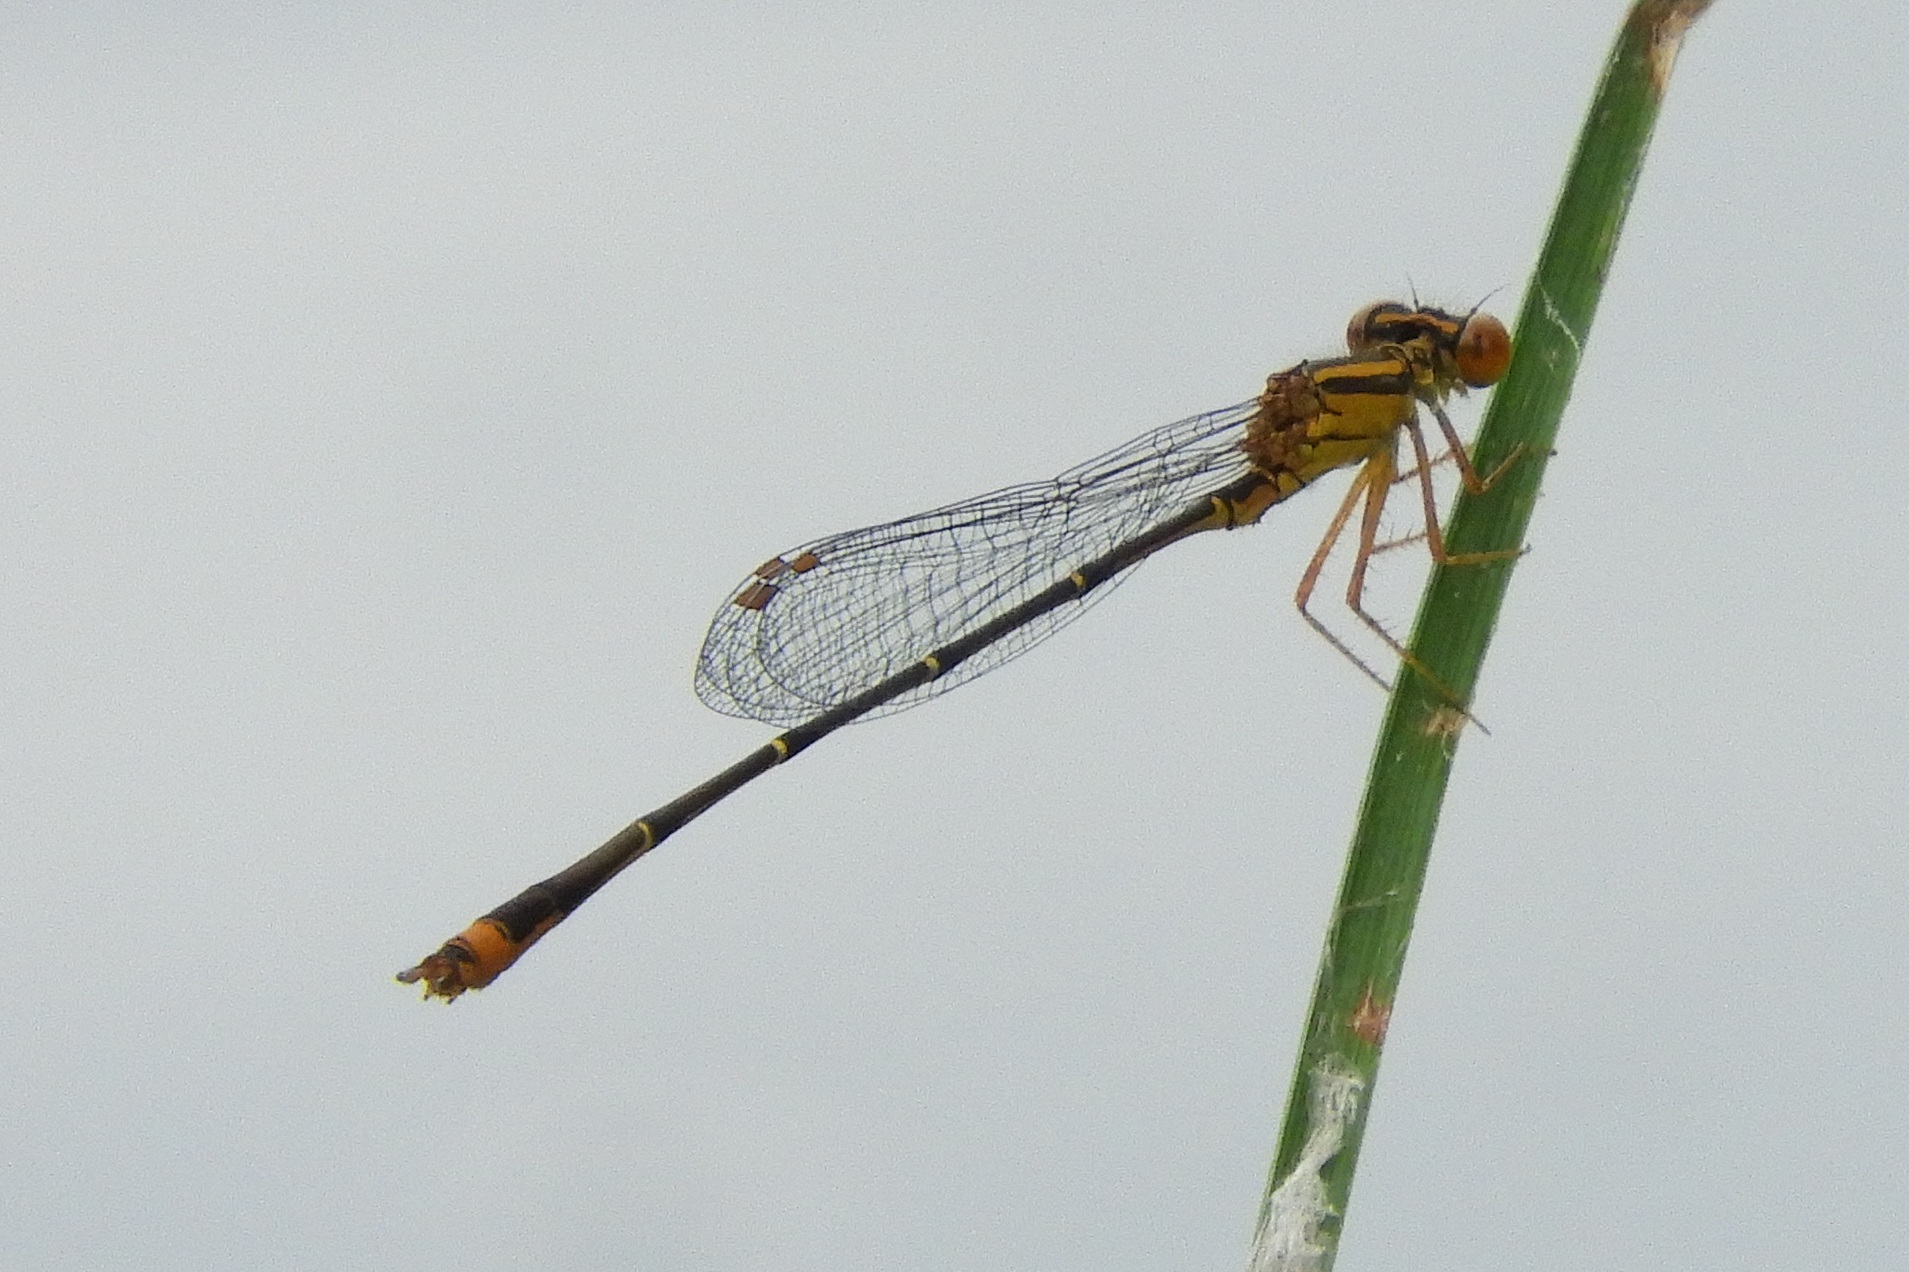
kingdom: Animalia
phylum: Arthropoda
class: Insecta
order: Odonata
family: Coenagrionidae
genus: Enallagma
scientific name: Enallagma signatum
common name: Orange bluet
